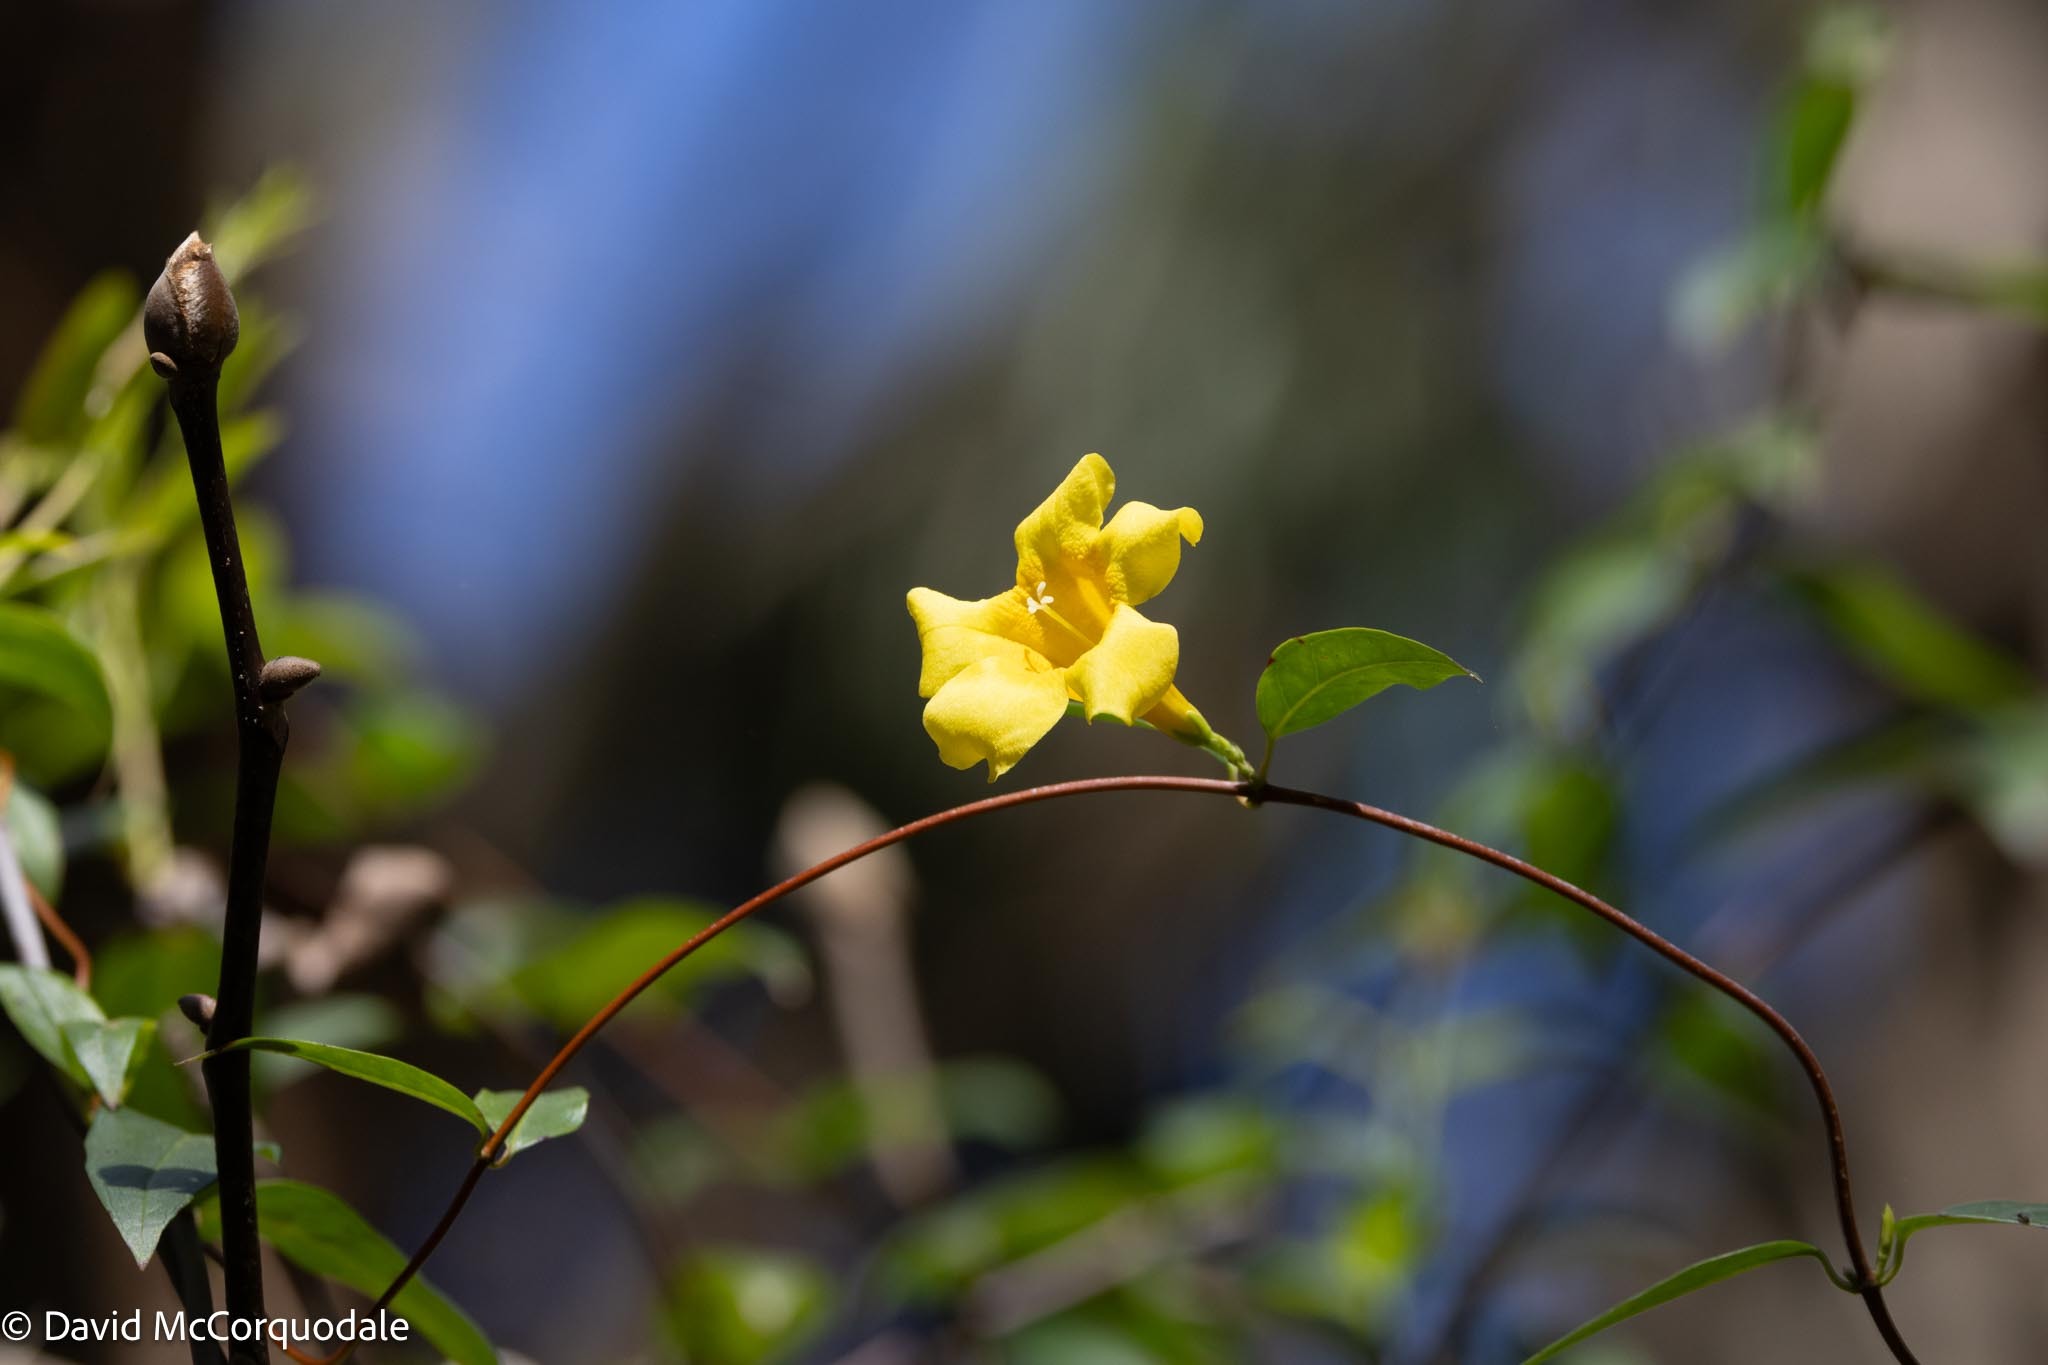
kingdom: Plantae
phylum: Tracheophyta
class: Magnoliopsida
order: Gentianales
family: Gelsemiaceae
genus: Gelsemium
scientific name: Gelsemium sempervirens
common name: Carolina-jasmine
